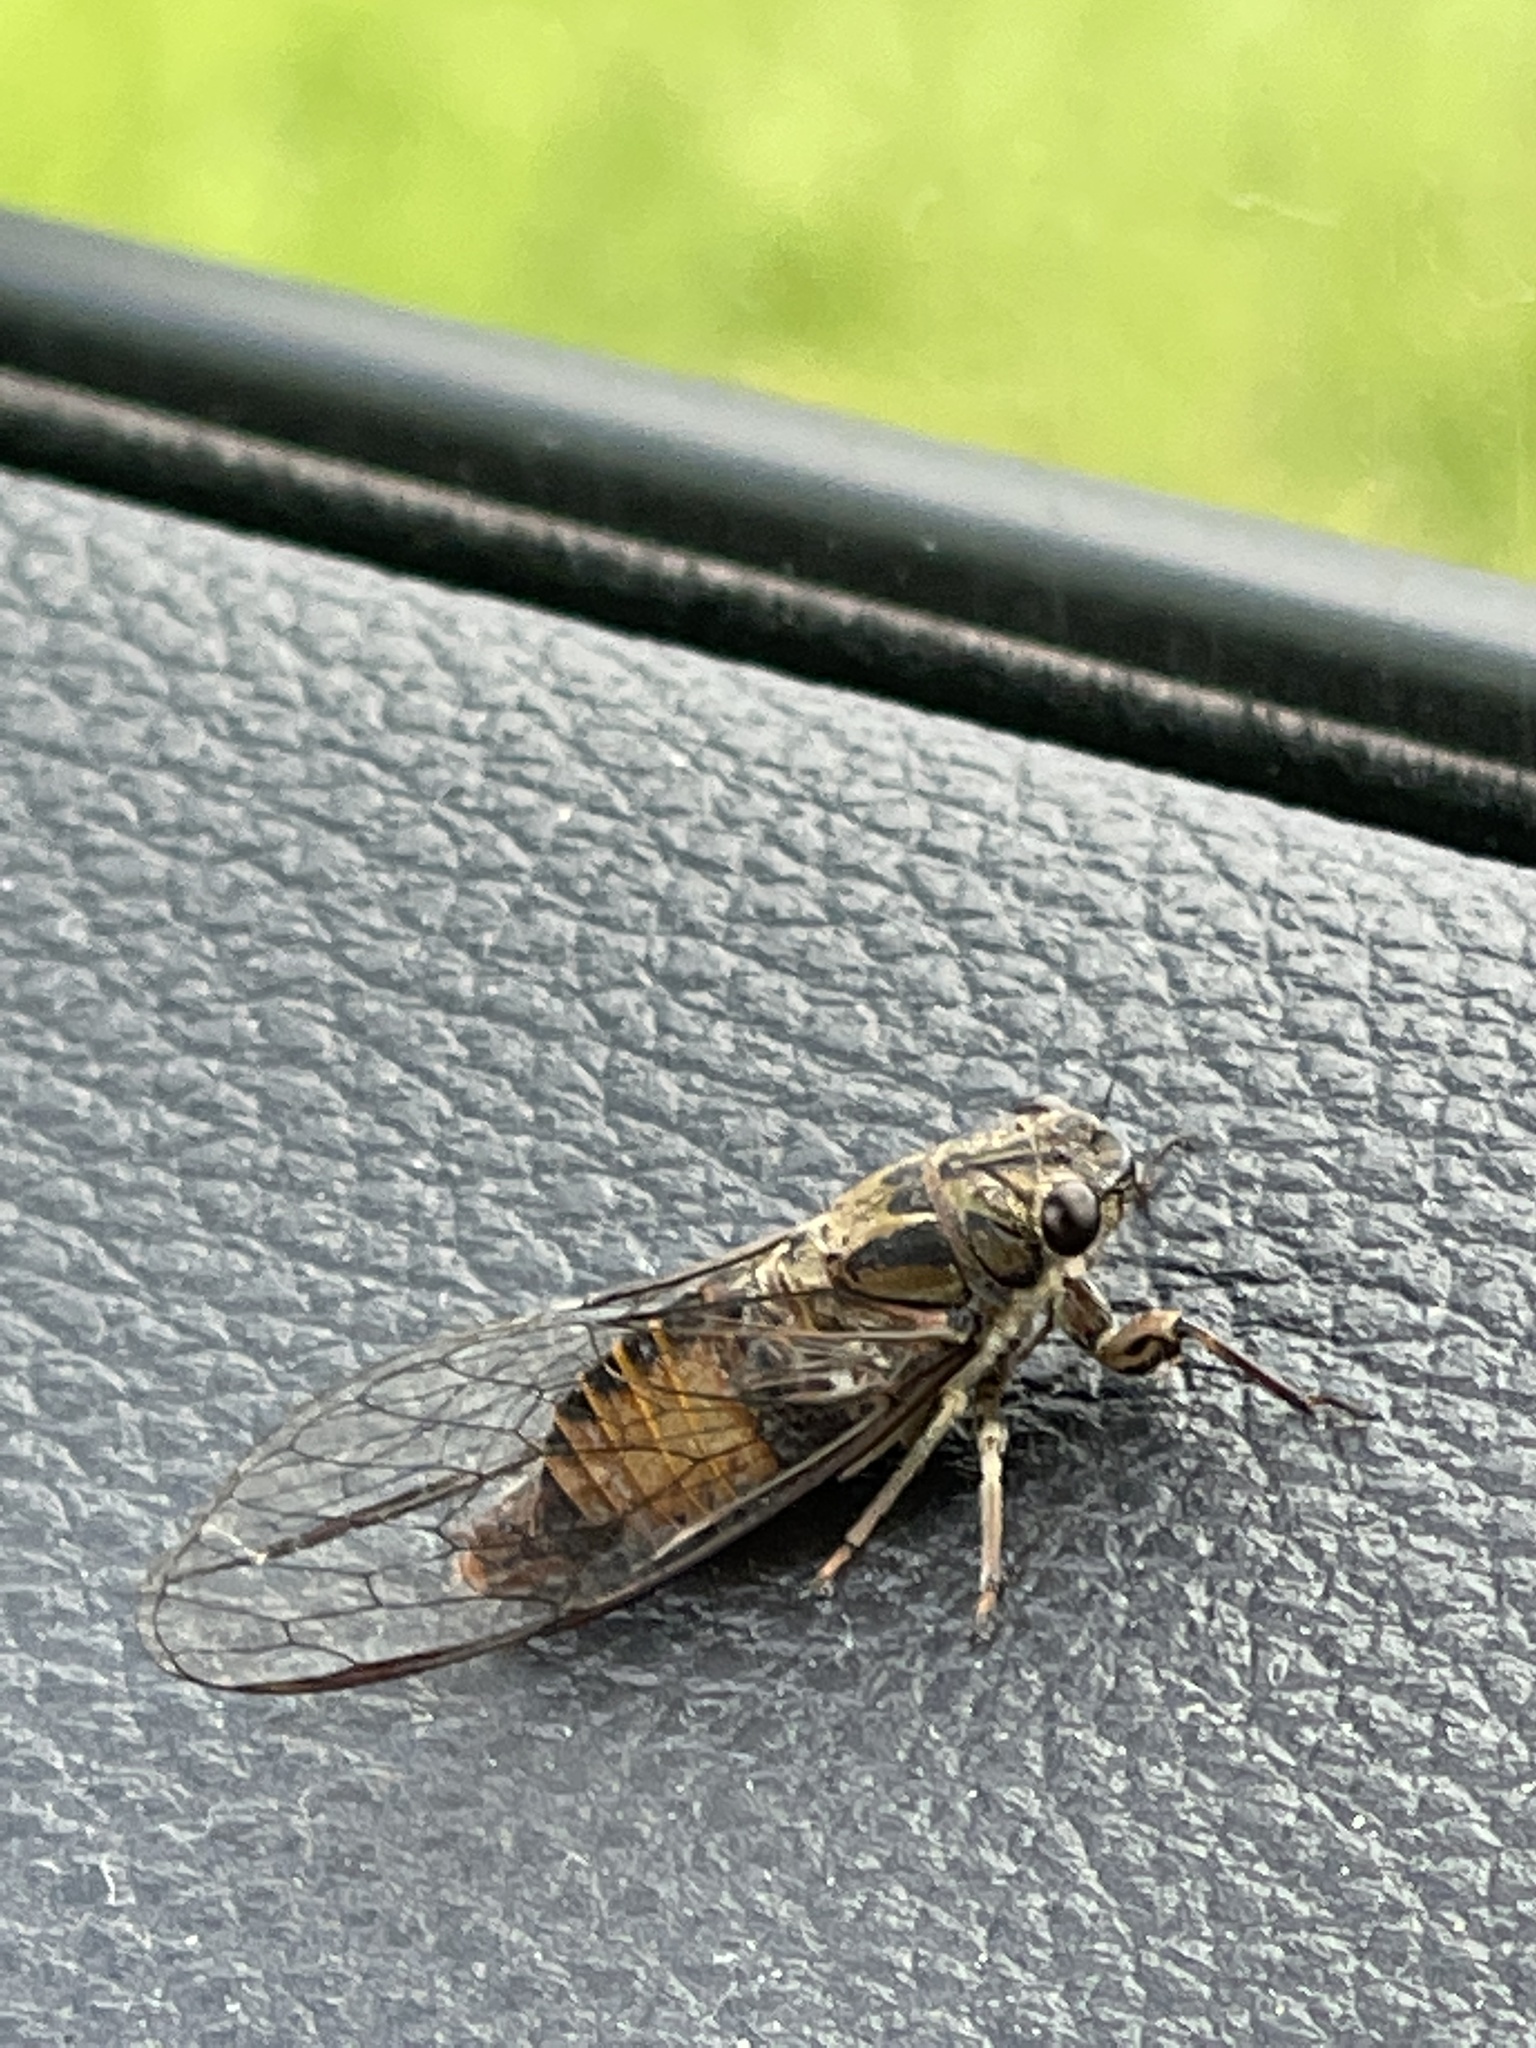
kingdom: Animalia
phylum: Arthropoda
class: Insecta
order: Hemiptera
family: Cicadidae
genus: Yoyetta
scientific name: Yoyetta celis
